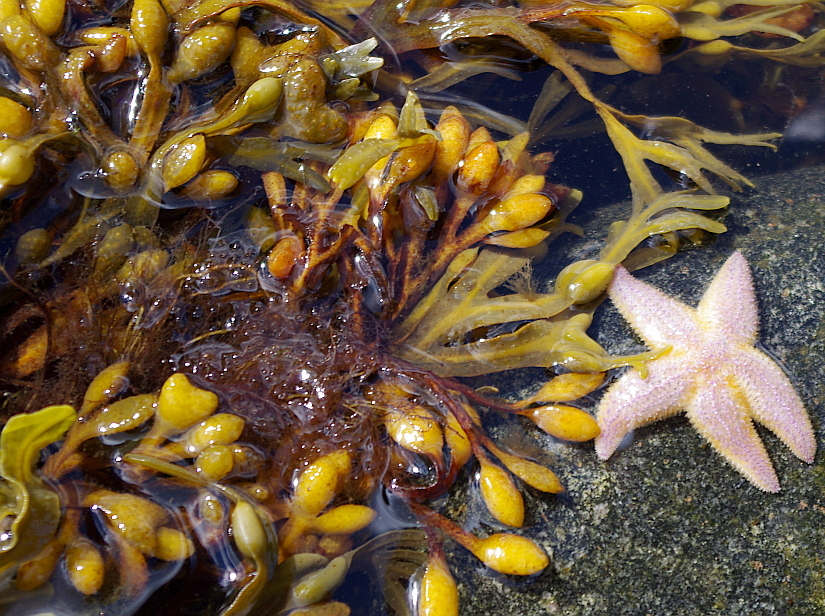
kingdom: Chromista
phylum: Ochrophyta
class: Phaeophyceae
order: Fucales
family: Fucaceae
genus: Fucus
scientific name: Fucus vesiculosus
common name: Bladder wrack
